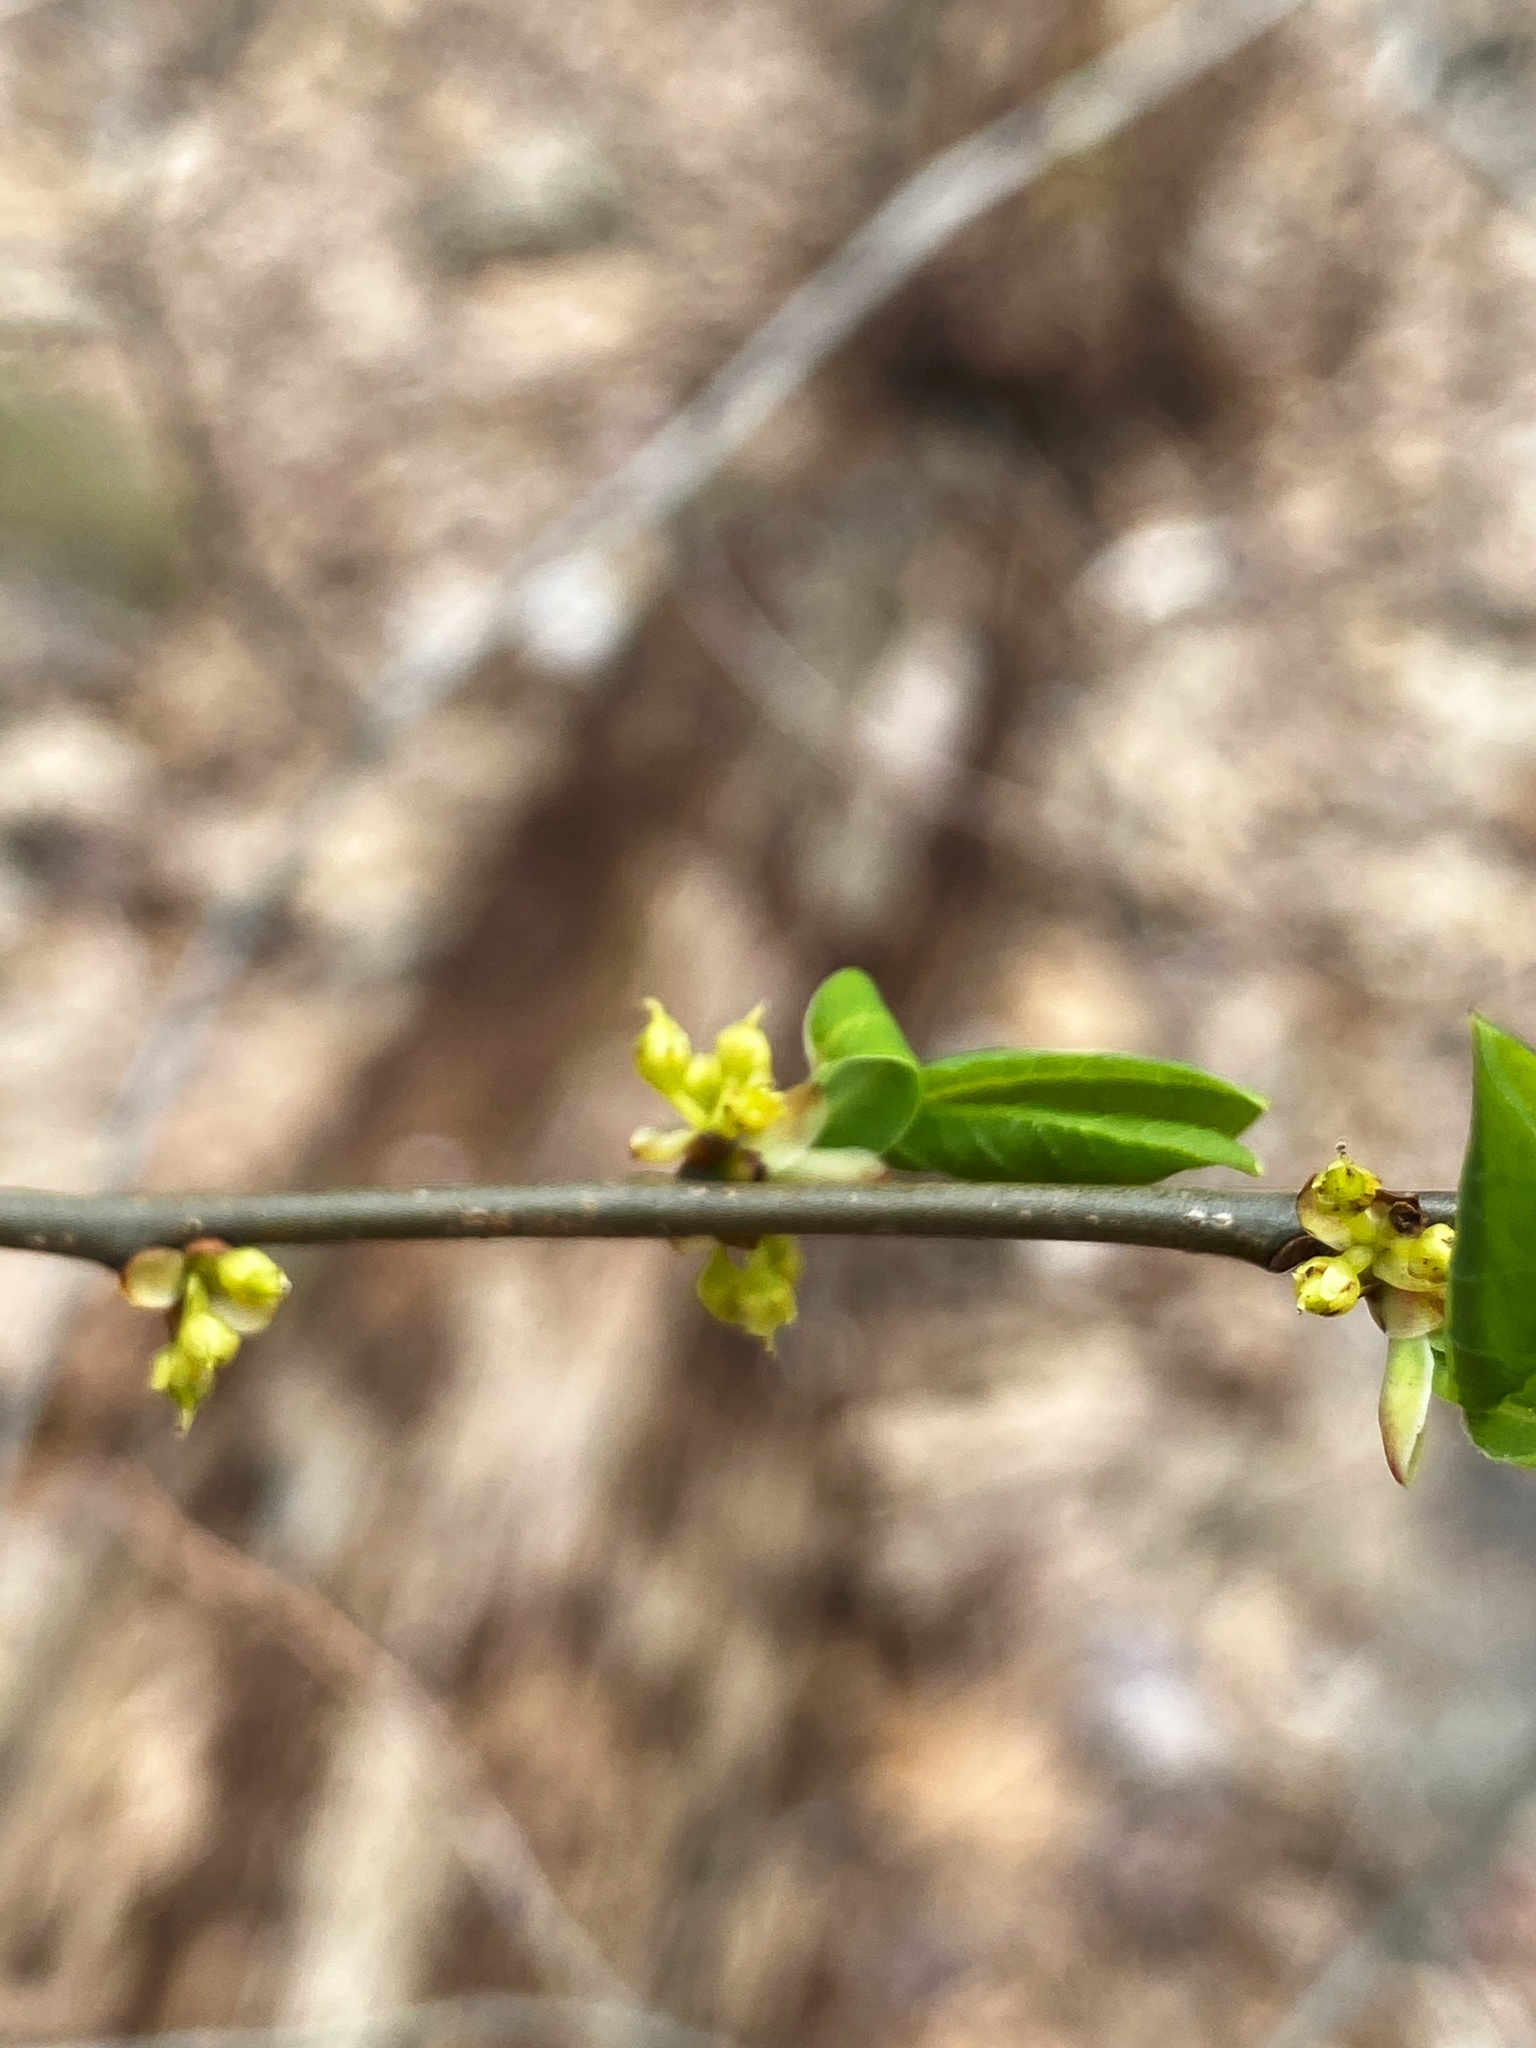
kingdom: Plantae
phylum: Tracheophyta
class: Magnoliopsida
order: Laurales
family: Lauraceae
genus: Lindera
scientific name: Lindera benzoin
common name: Spicebush
